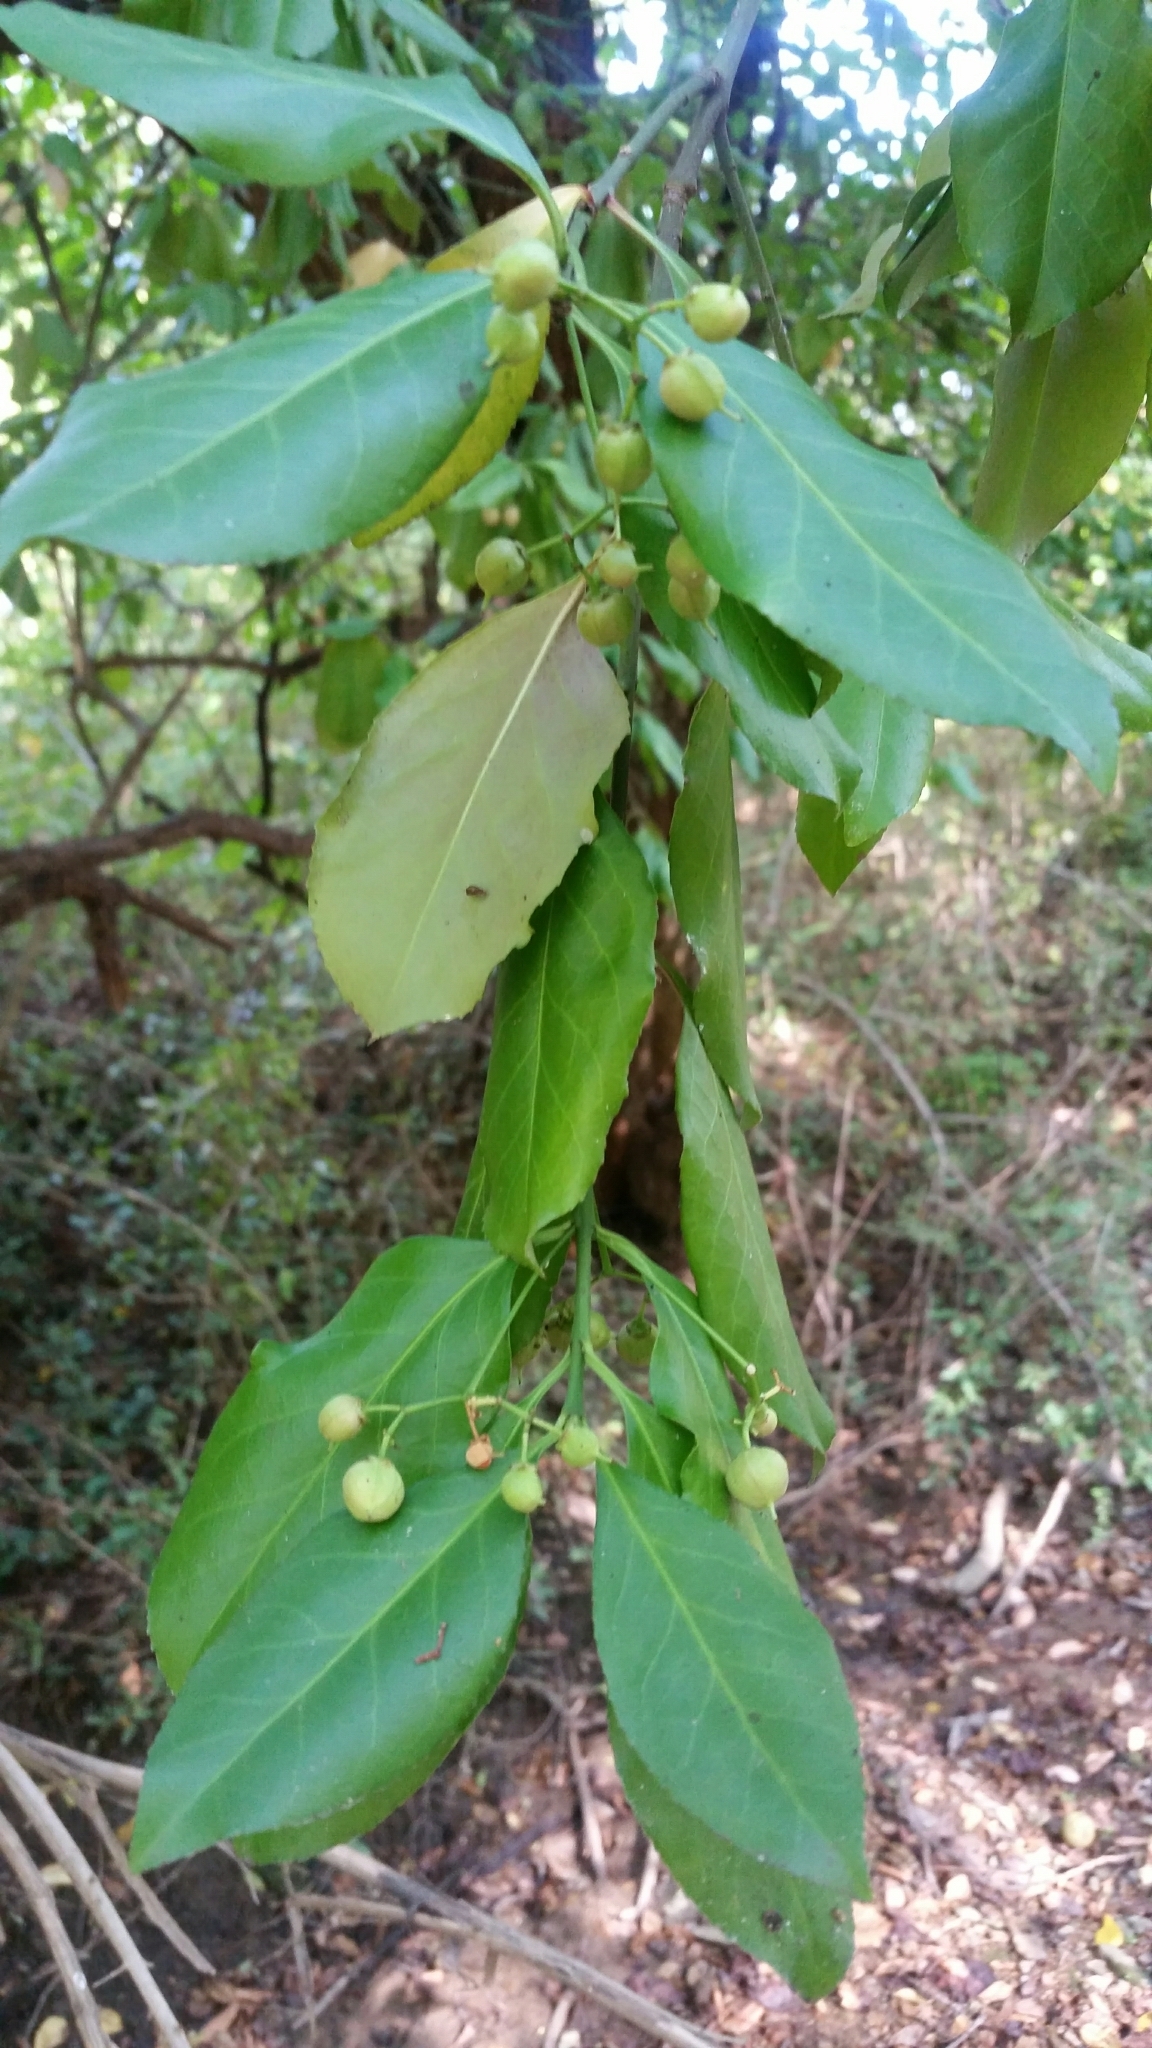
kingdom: Plantae
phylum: Tracheophyta
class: Magnoliopsida
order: Celastrales
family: Celastraceae
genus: Euonymus
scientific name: Euonymus fortunei
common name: Climbing euonymus
